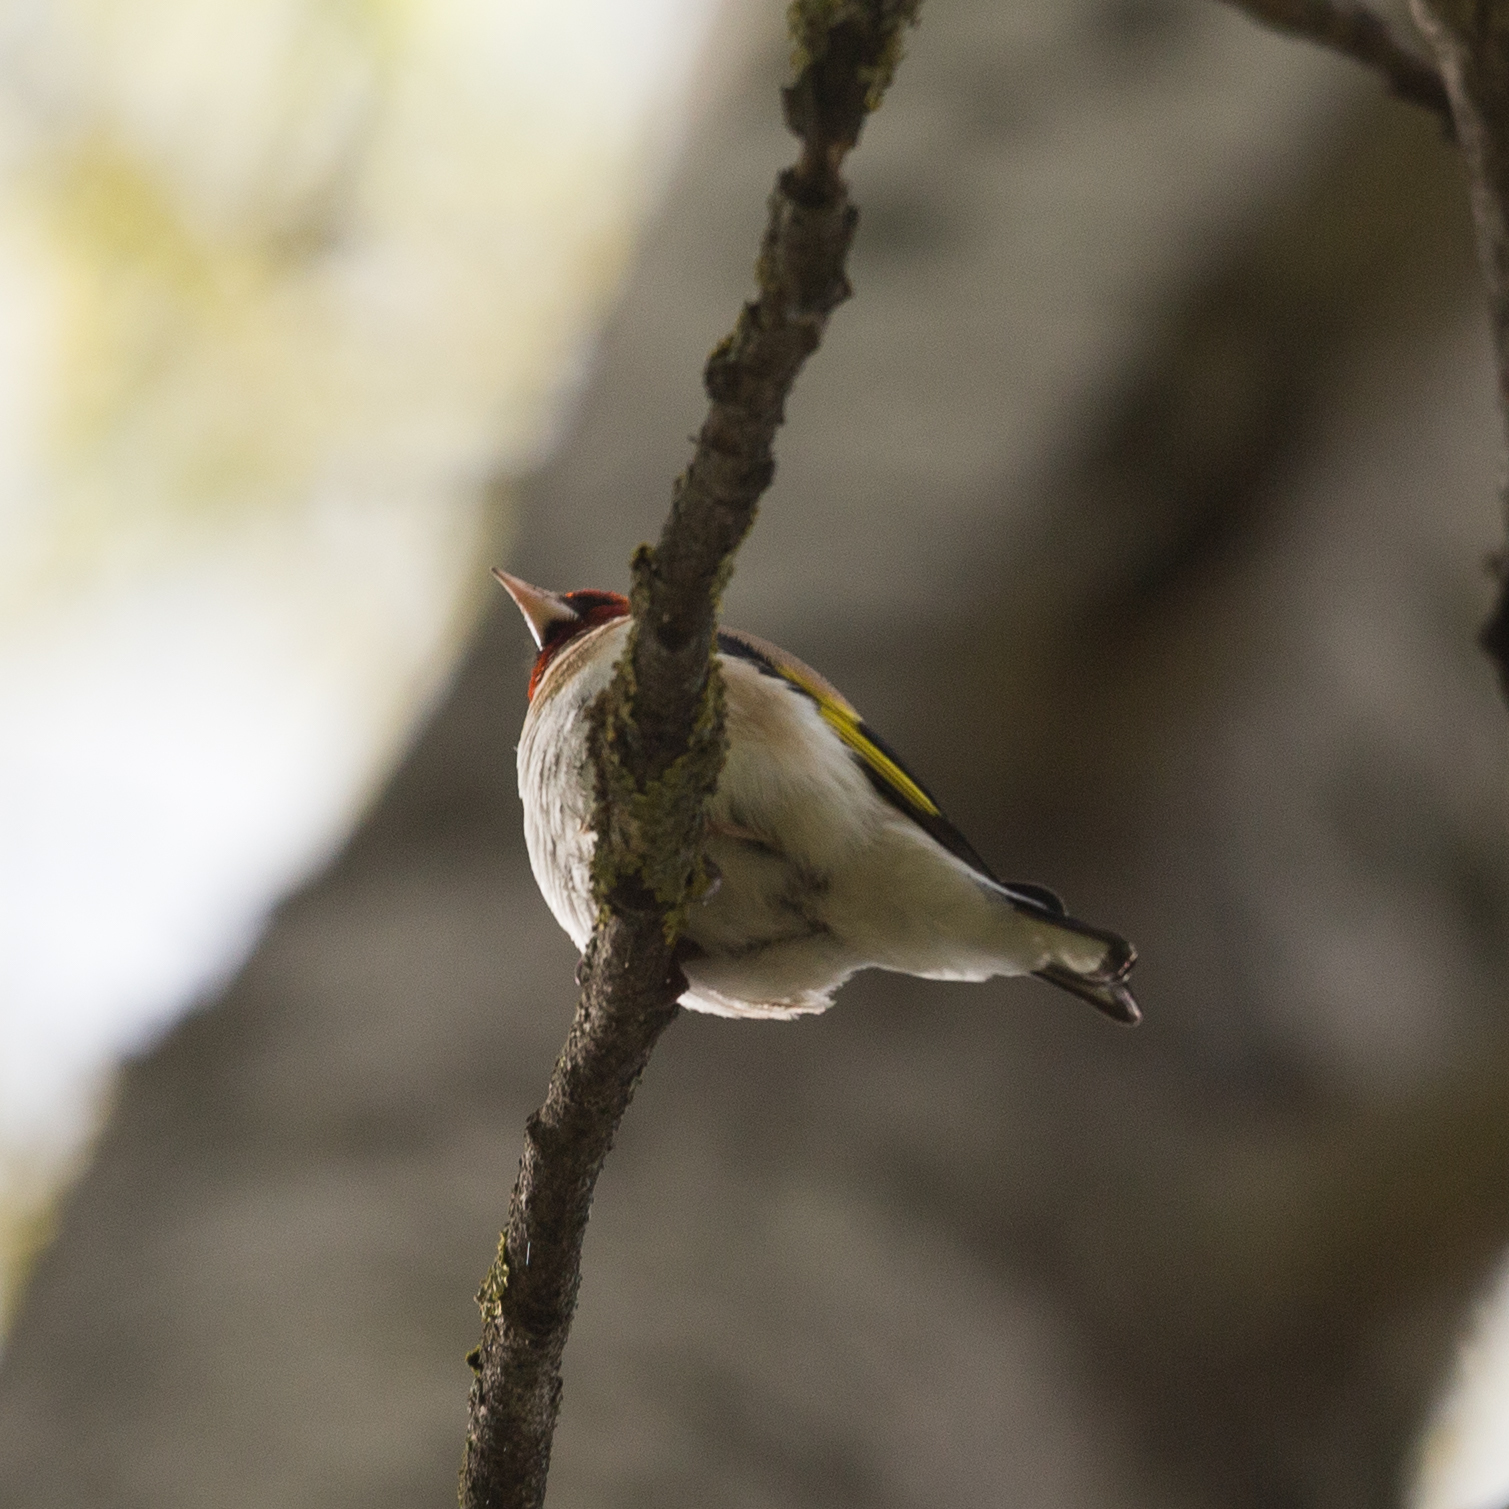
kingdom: Animalia
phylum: Chordata
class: Aves
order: Passeriformes
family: Fringillidae
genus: Carduelis
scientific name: Carduelis carduelis
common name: European goldfinch
